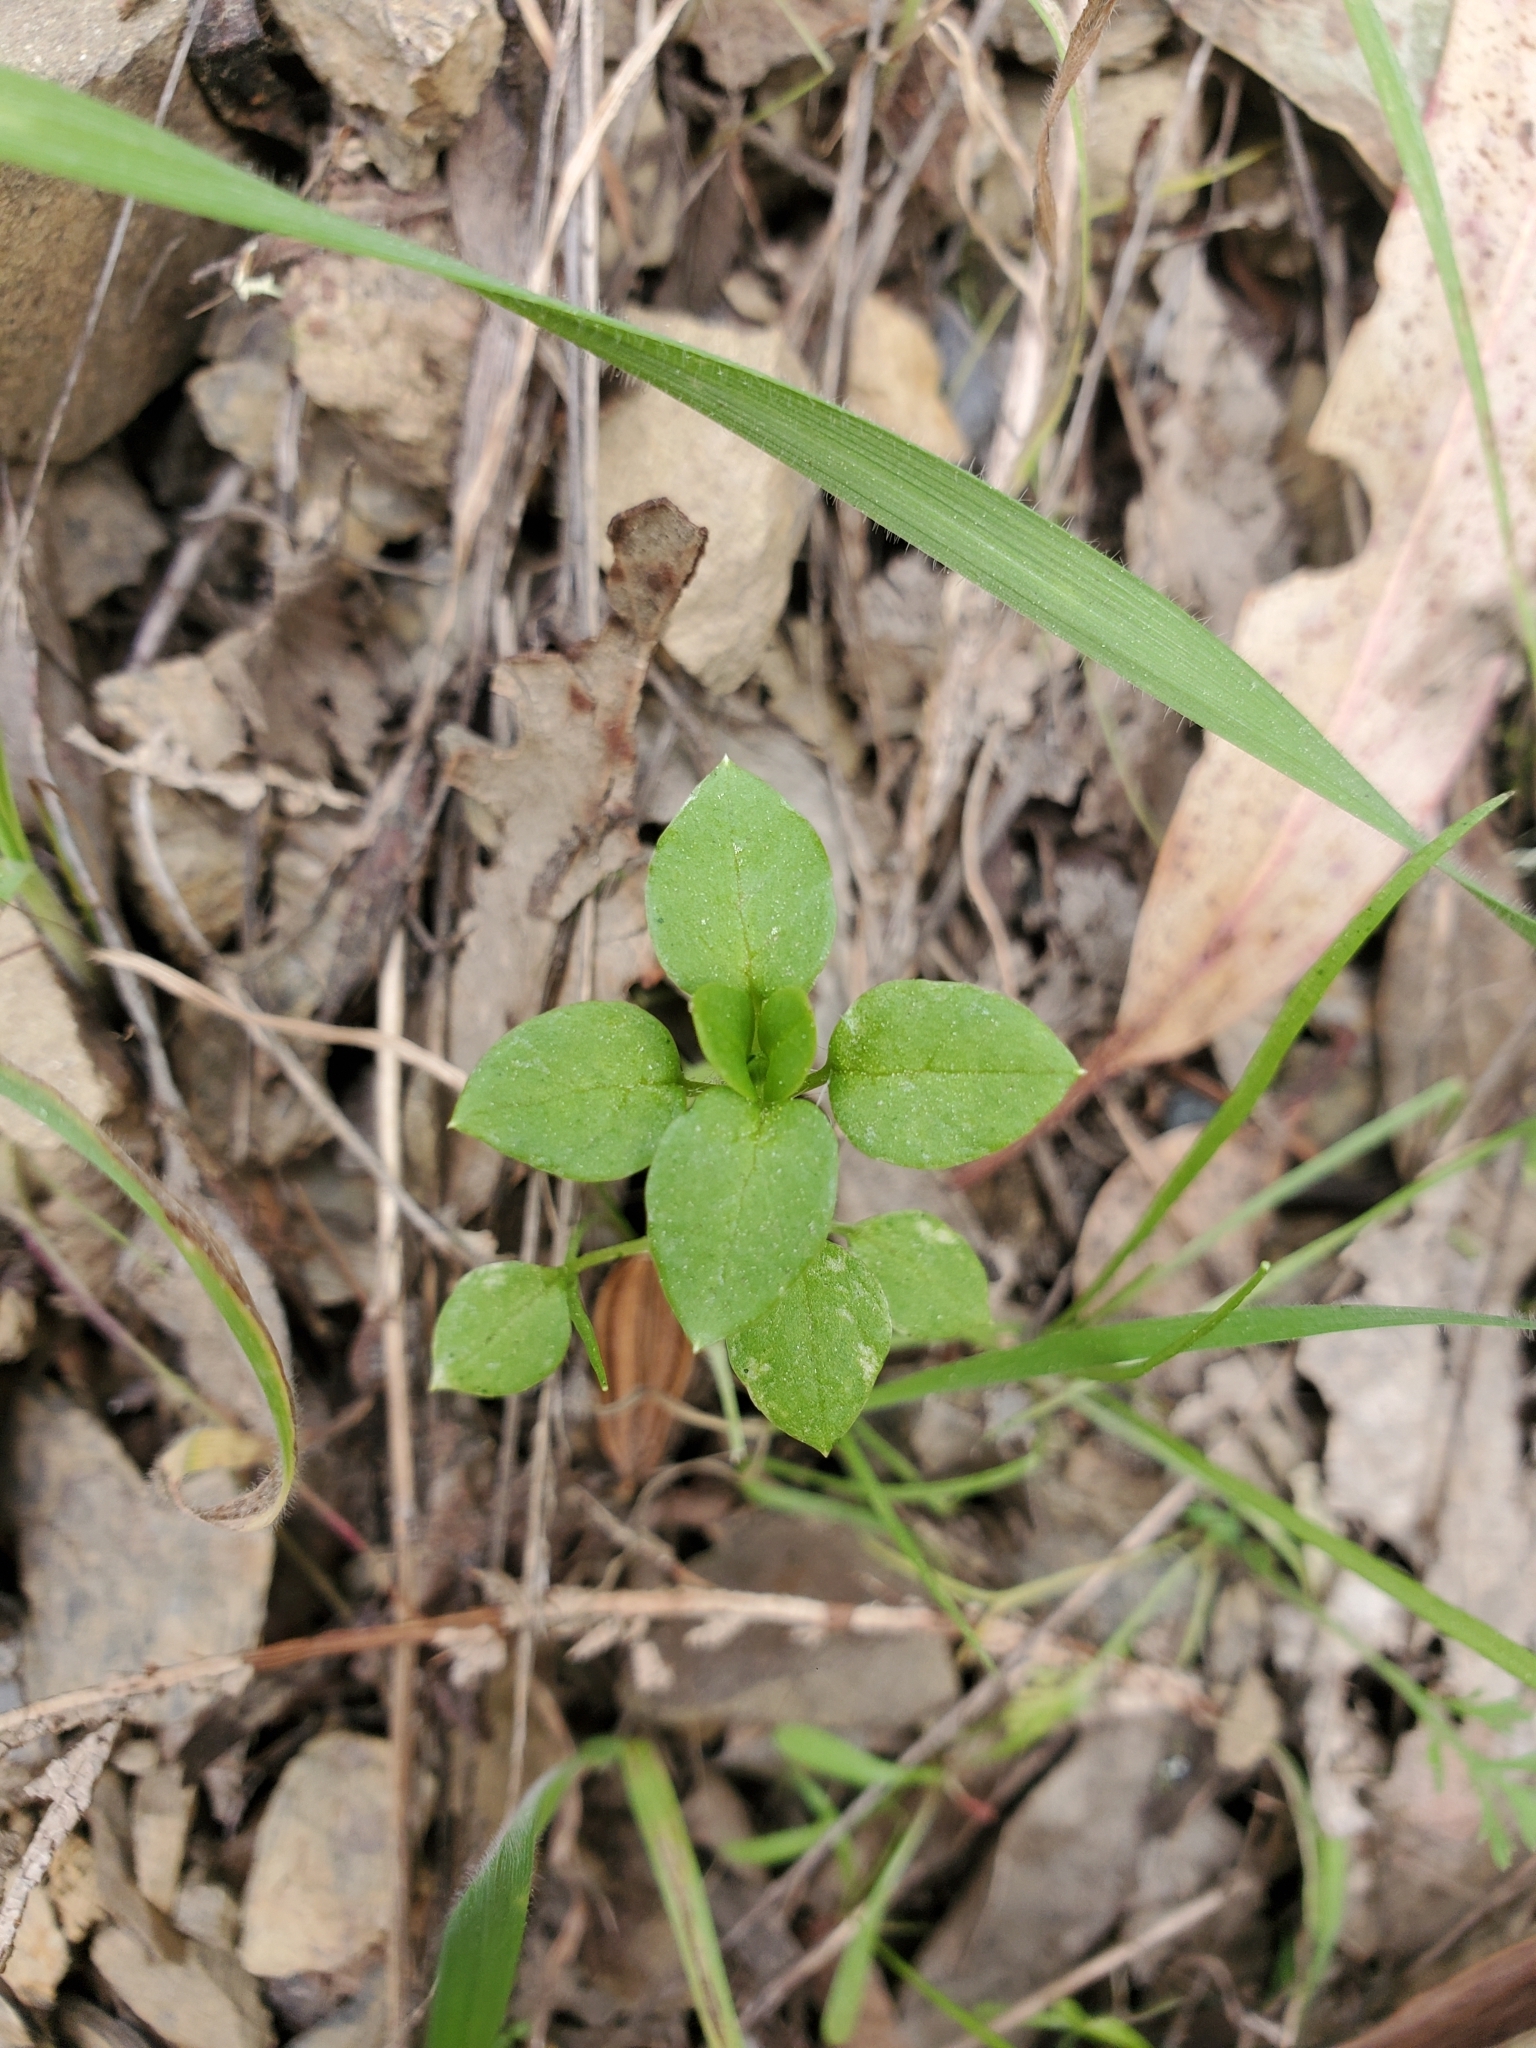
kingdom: Plantae
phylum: Tracheophyta
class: Magnoliopsida
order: Caryophyllales
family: Caryophyllaceae
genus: Stellaria
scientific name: Stellaria media
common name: Common chickweed
